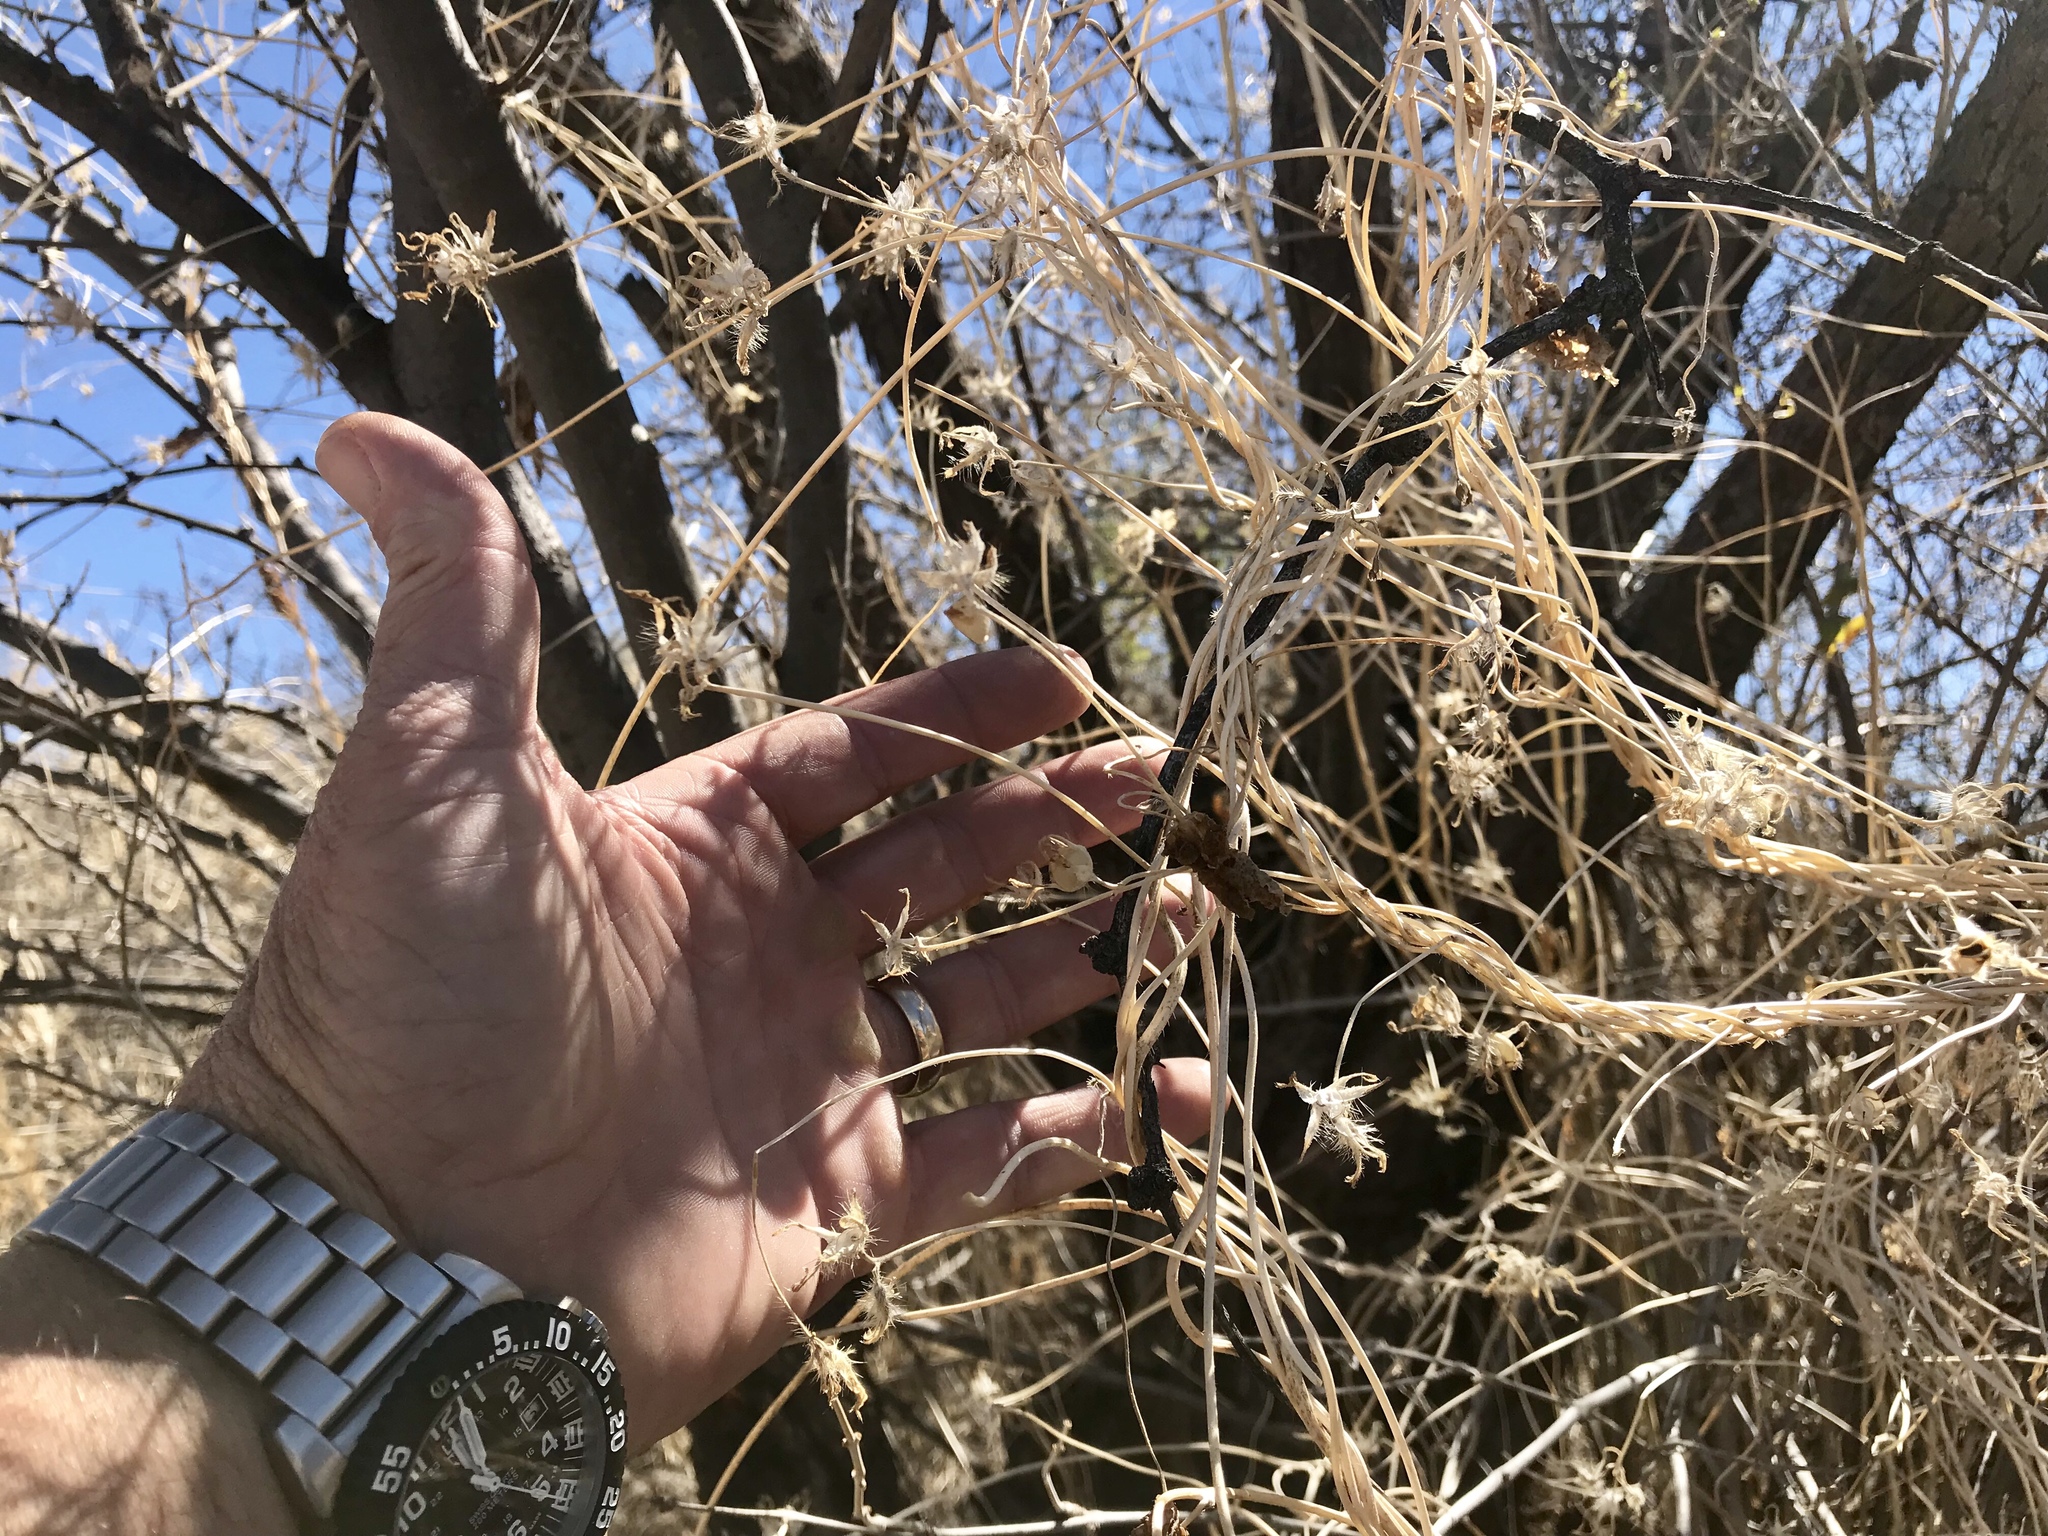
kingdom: Plantae
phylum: Tracheophyta
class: Magnoliopsida
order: Solanales
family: Convolvulaceae
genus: Ipomoea
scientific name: Ipomoea hederacea
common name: Ivy-leaved morning-glory
